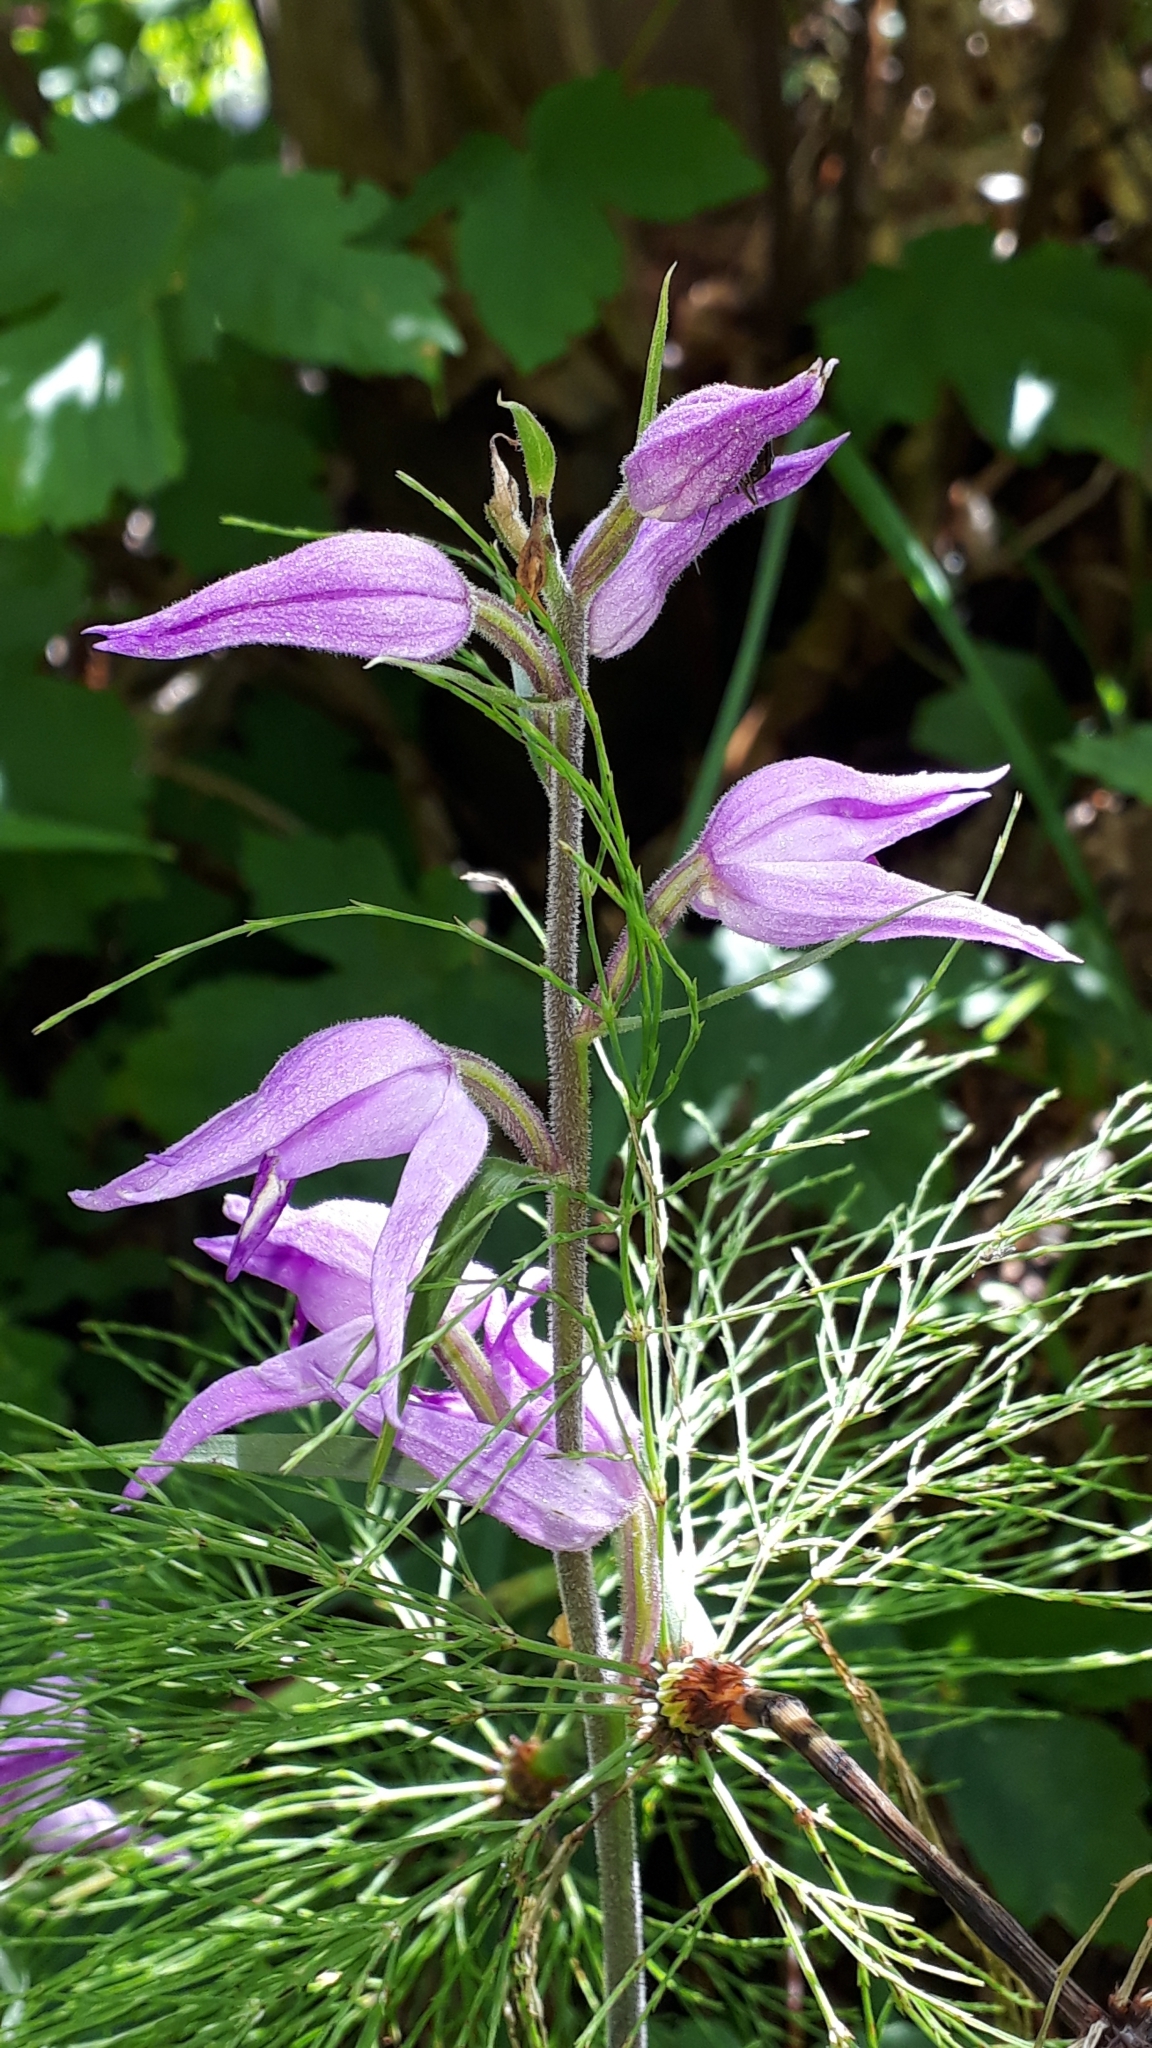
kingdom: Plantae
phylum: Tracheophyta
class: Liliopsida
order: Asparagales
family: Orchidaceae
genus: Cephalanthera
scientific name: Cephalanthera rubra
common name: Red helleborine
